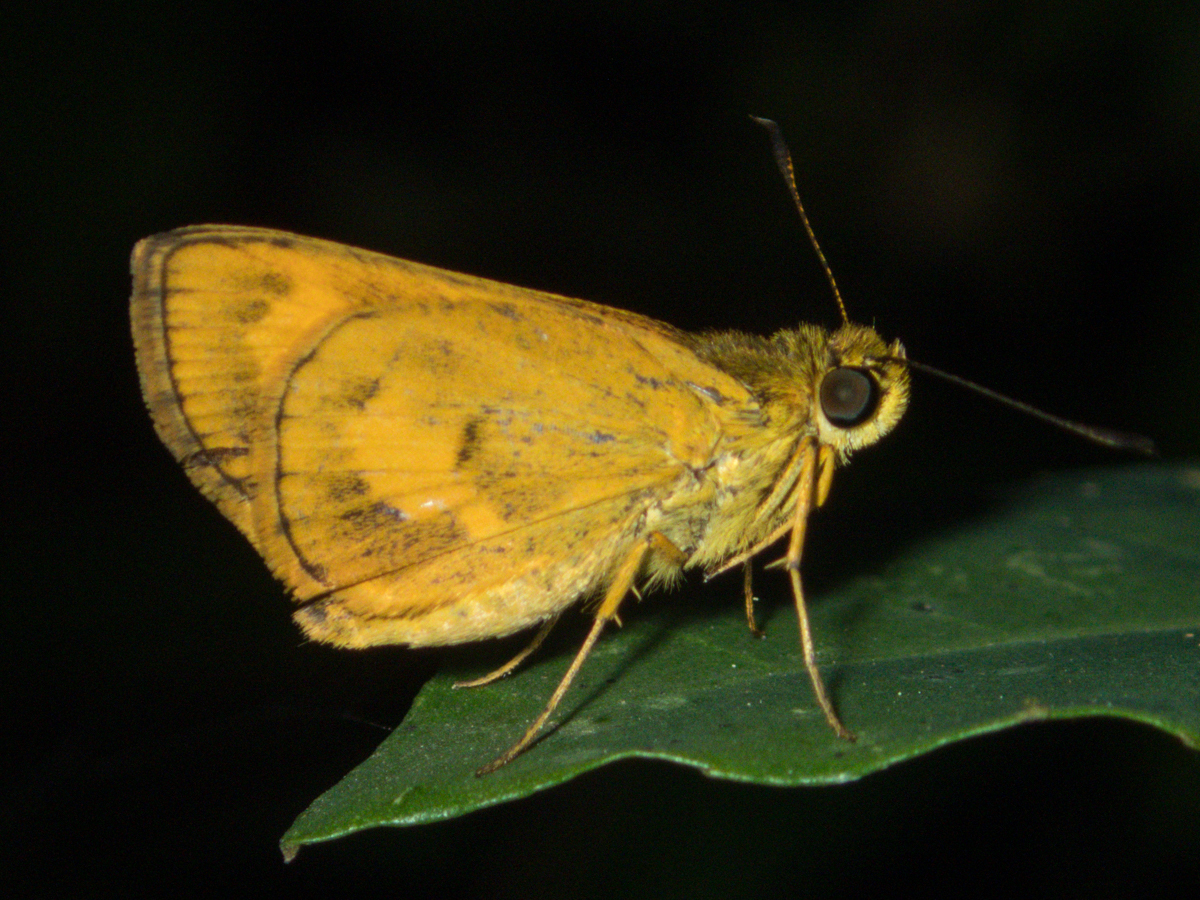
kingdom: Animalia
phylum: Arthropoda
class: Insecta
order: Lepidoptera
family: Hesperiidae
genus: Oriens
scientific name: Oriens gola
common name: Common dartlet
